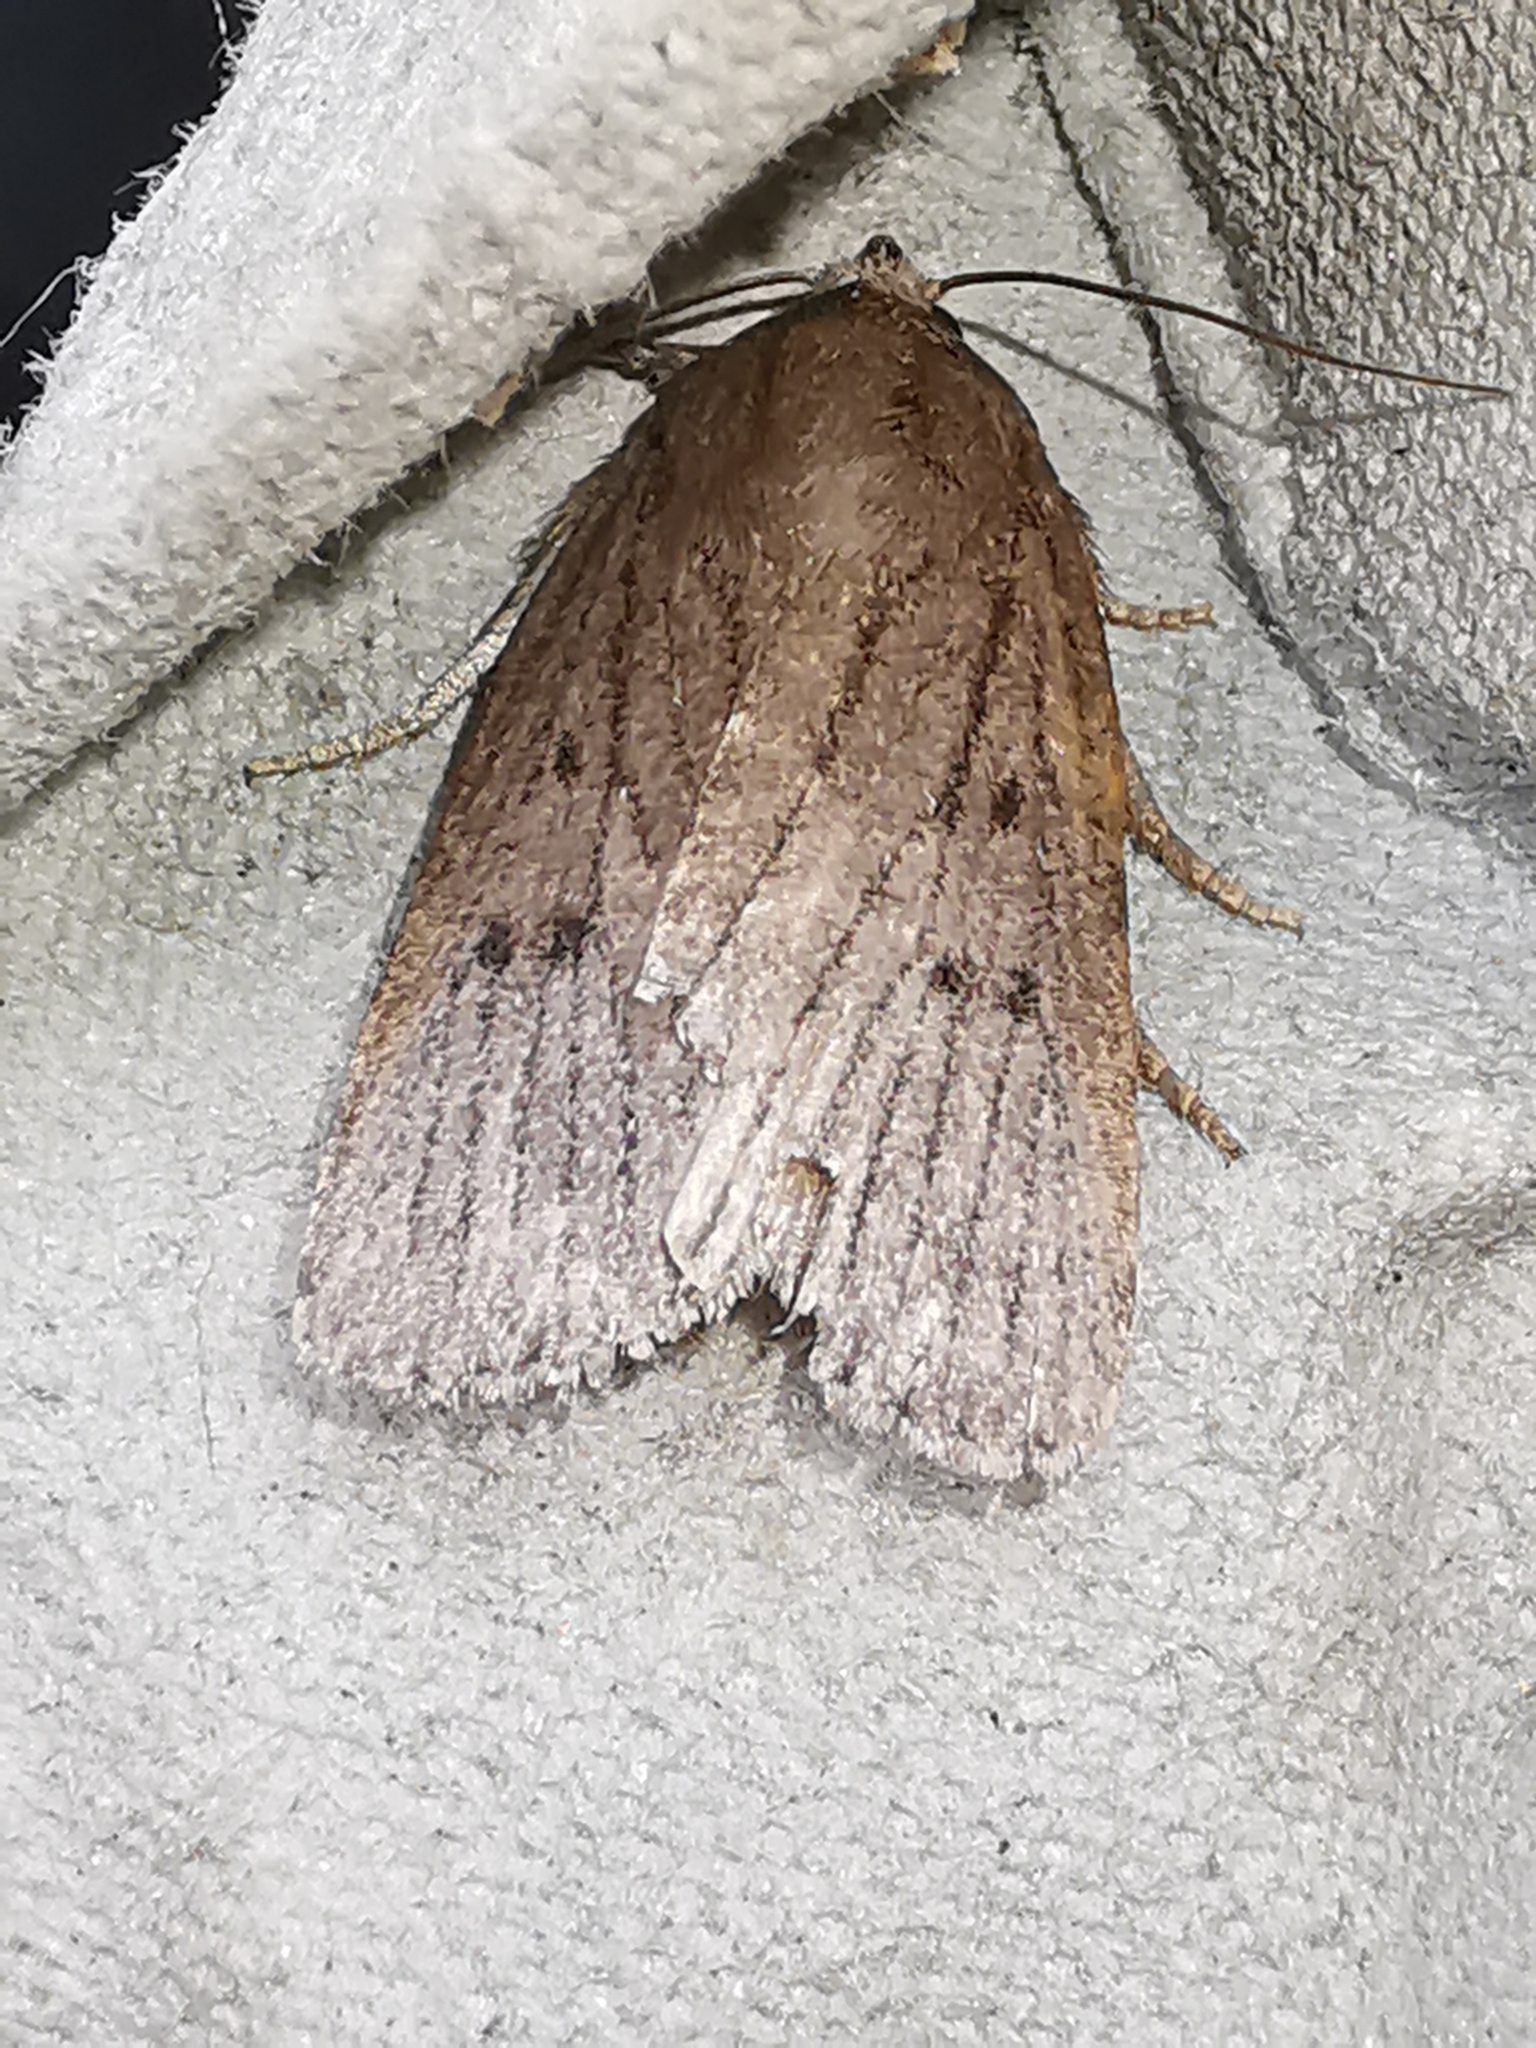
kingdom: Animalia
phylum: Arthropoda
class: Insecta
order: Lepidoptera
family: Noctuidae
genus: Amphipyra
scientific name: Amphipyra tragopoginis
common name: Mouse moth
